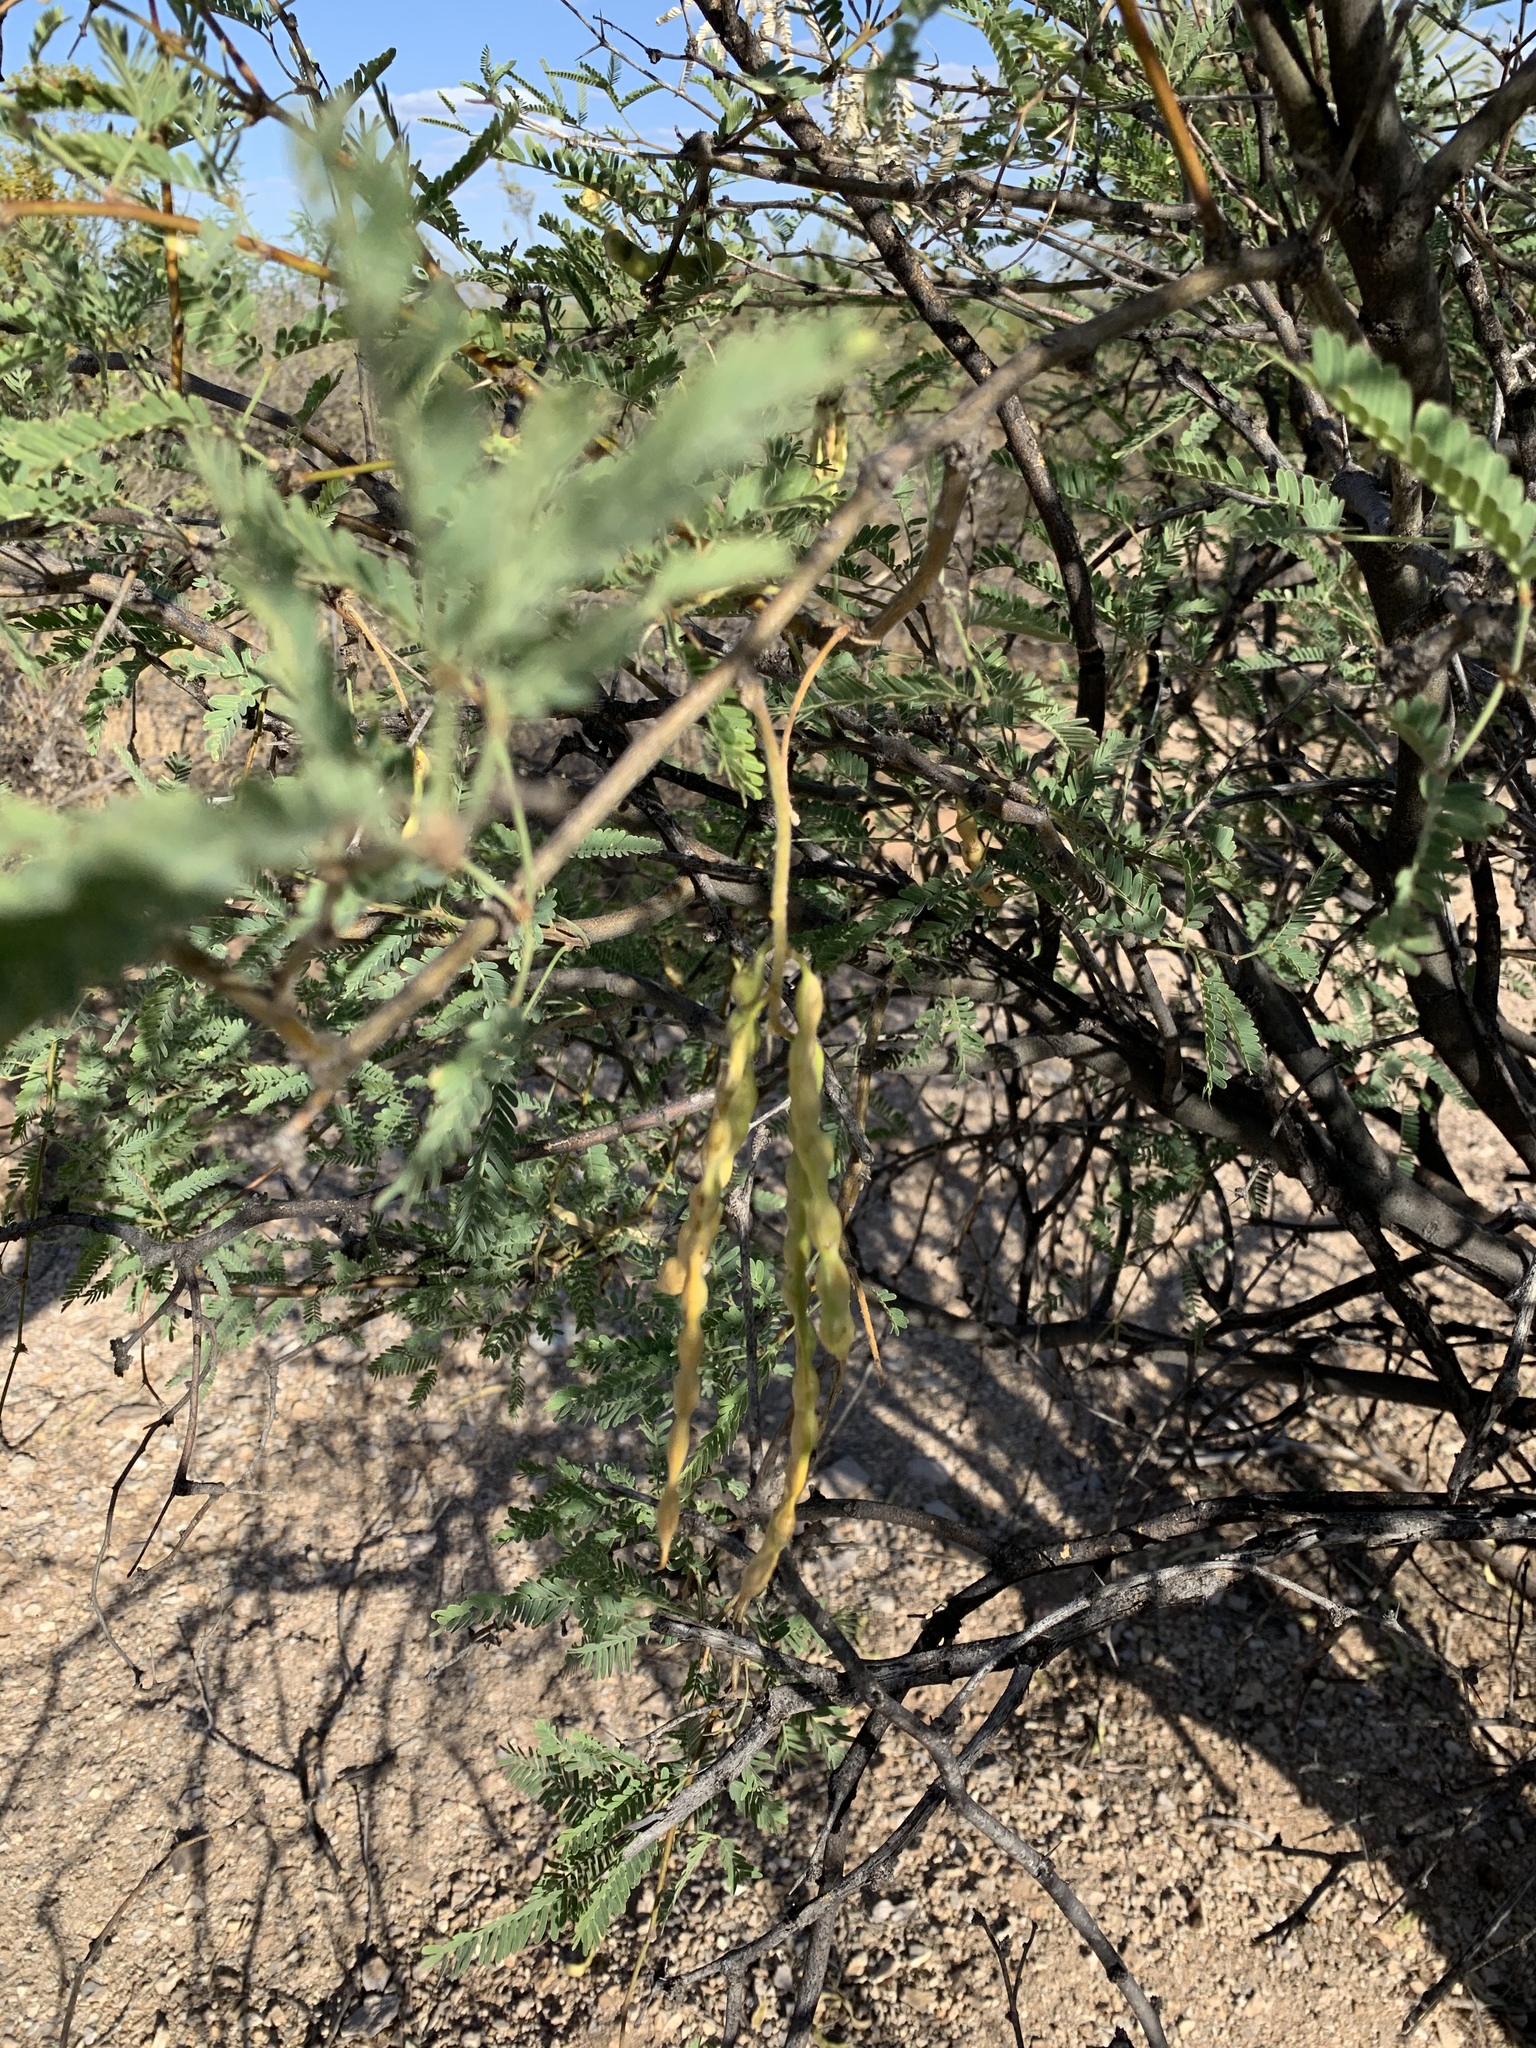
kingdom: Plantae
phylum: Tracheophyta
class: Magnoliopsida
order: Fabales
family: Fabaceae
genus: Prosopis
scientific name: Prosopis velutina
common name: Velvet mesquite
